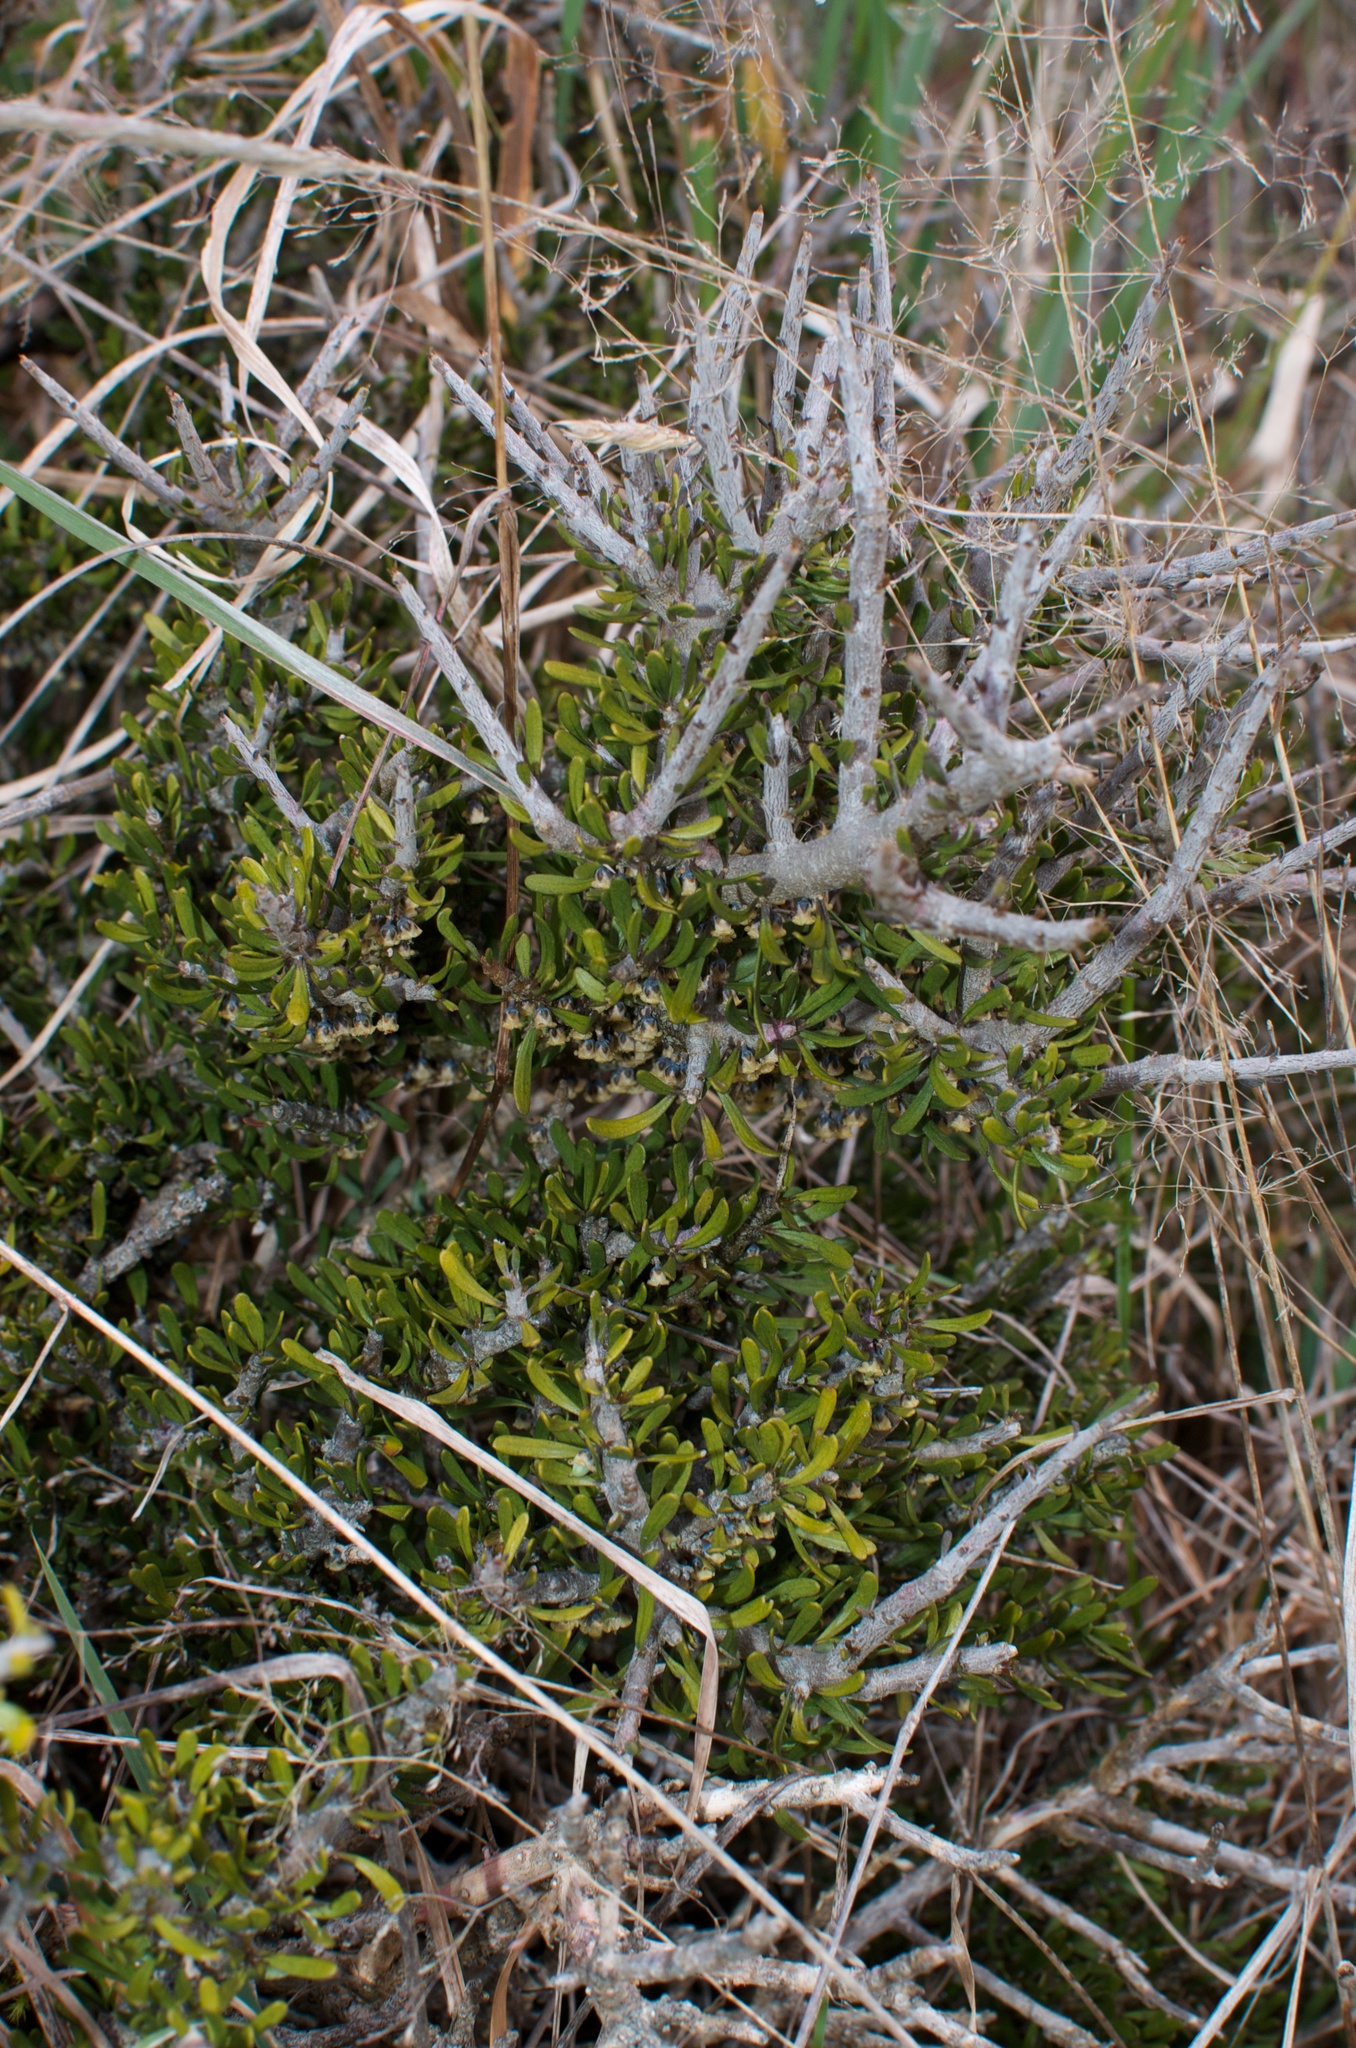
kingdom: Plantae
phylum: Tracheophyta
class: Magnoliopsida
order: Malpighiales
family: Violaceae
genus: Melicytus
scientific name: Melicytus alpinus
